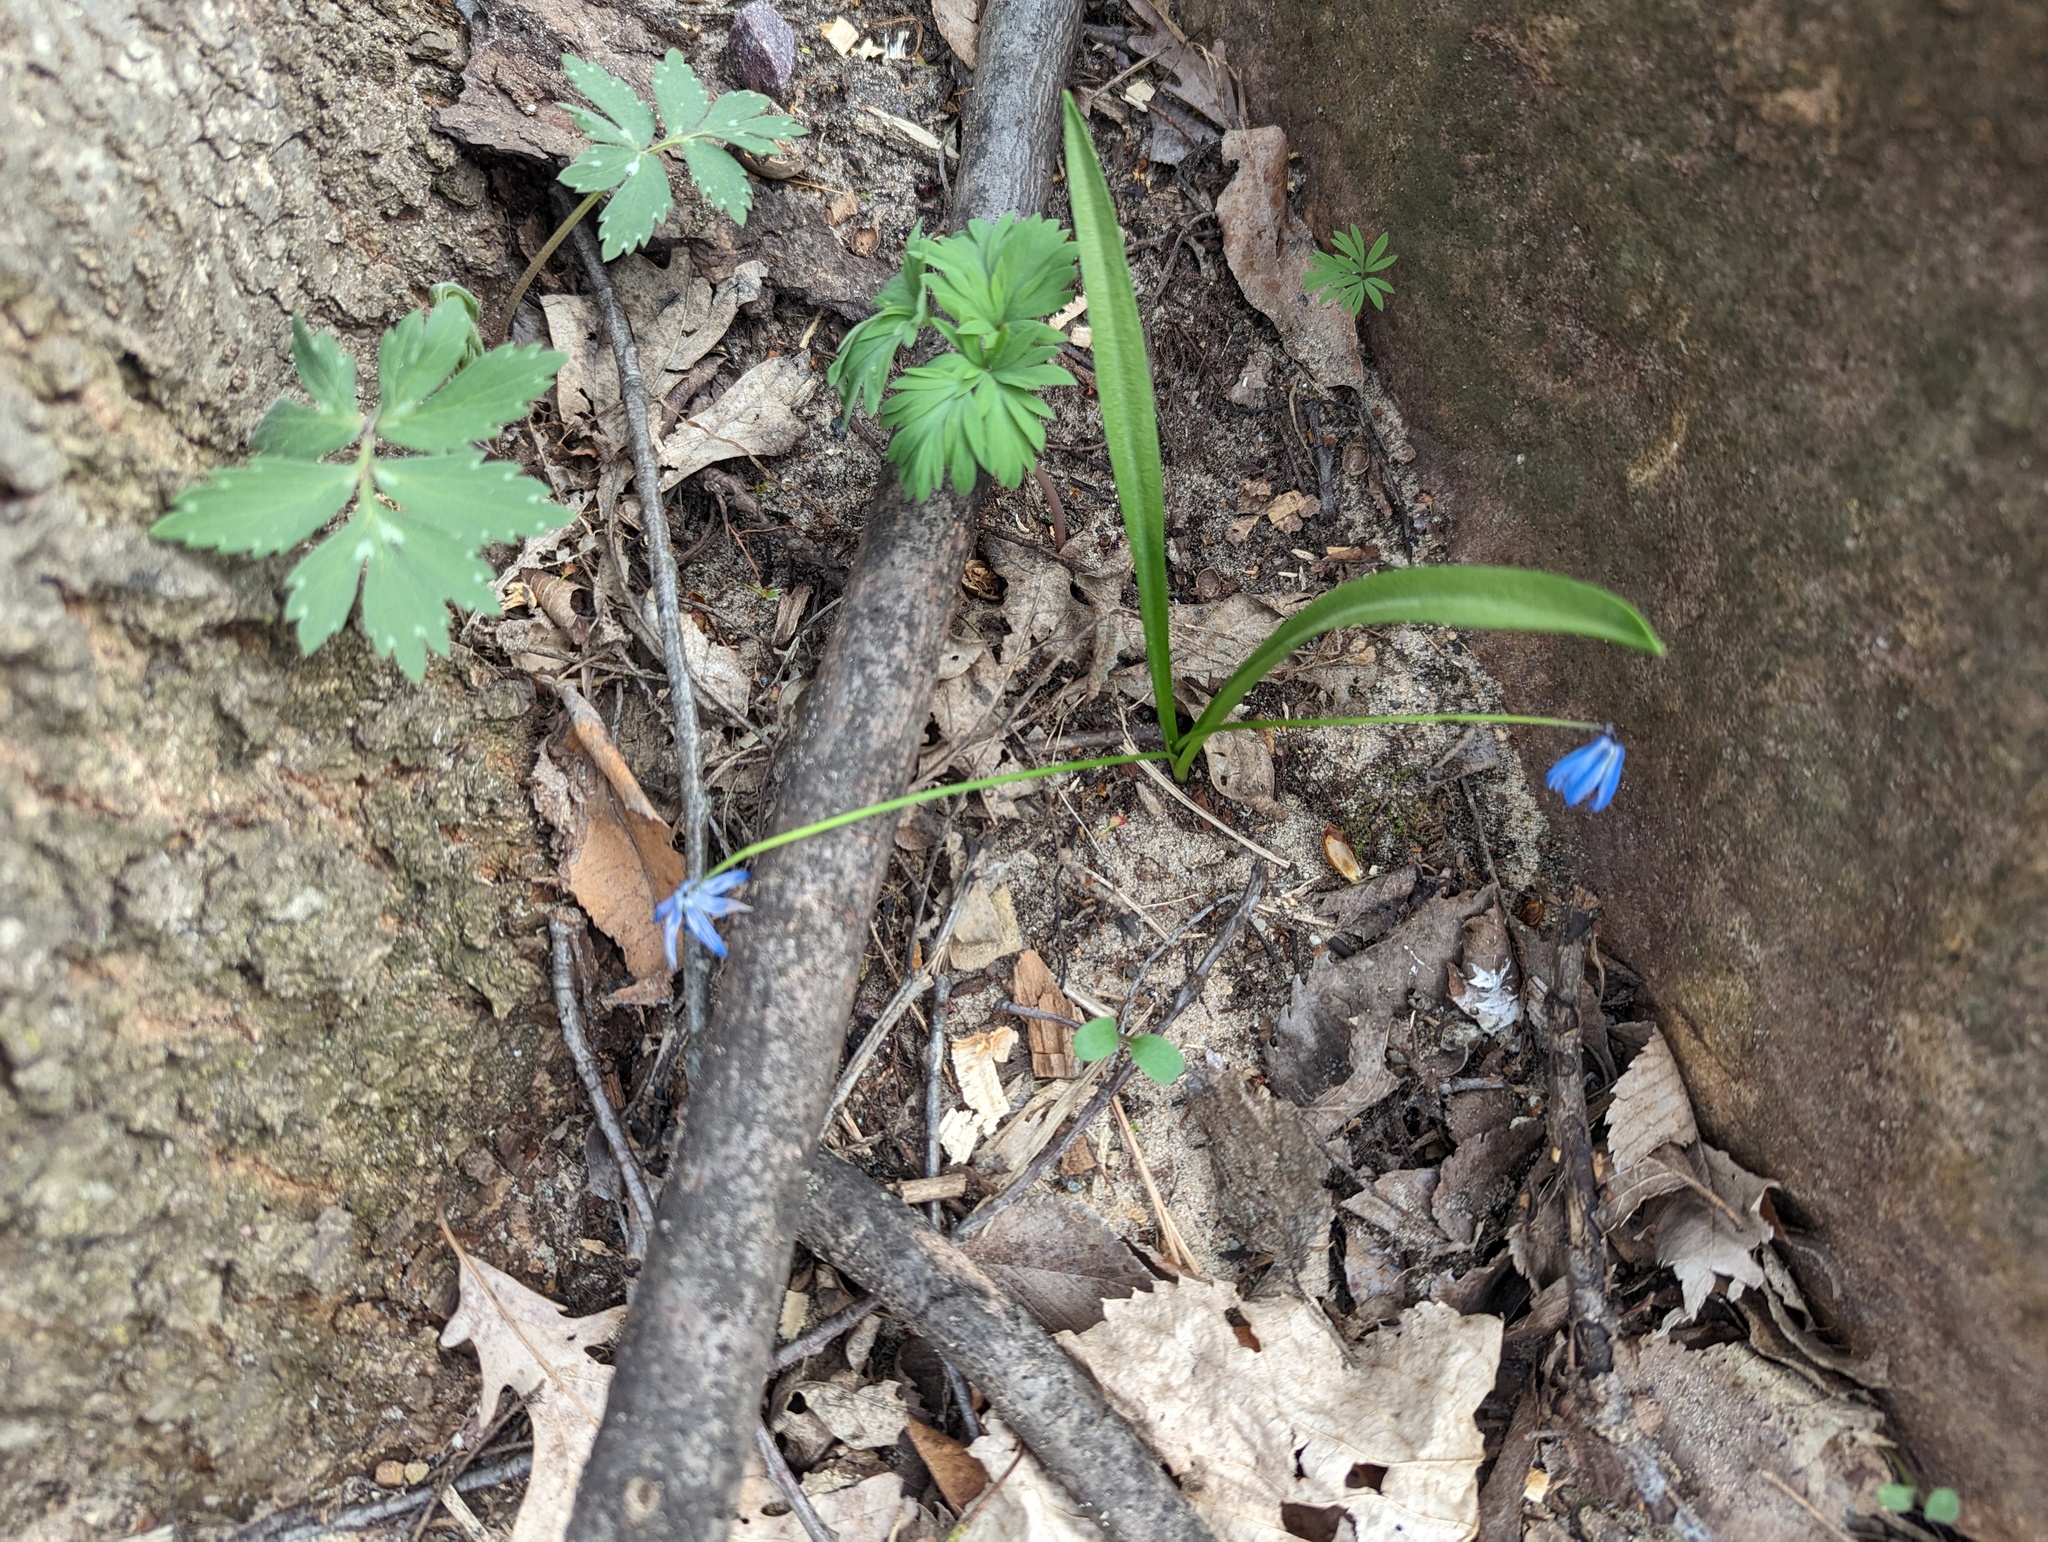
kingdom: Plantae
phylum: Tracheophyta
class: Liliopsida
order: Asparagales
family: Asparagaceae
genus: Scilla
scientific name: Scilla siberica
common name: Siberian squill
